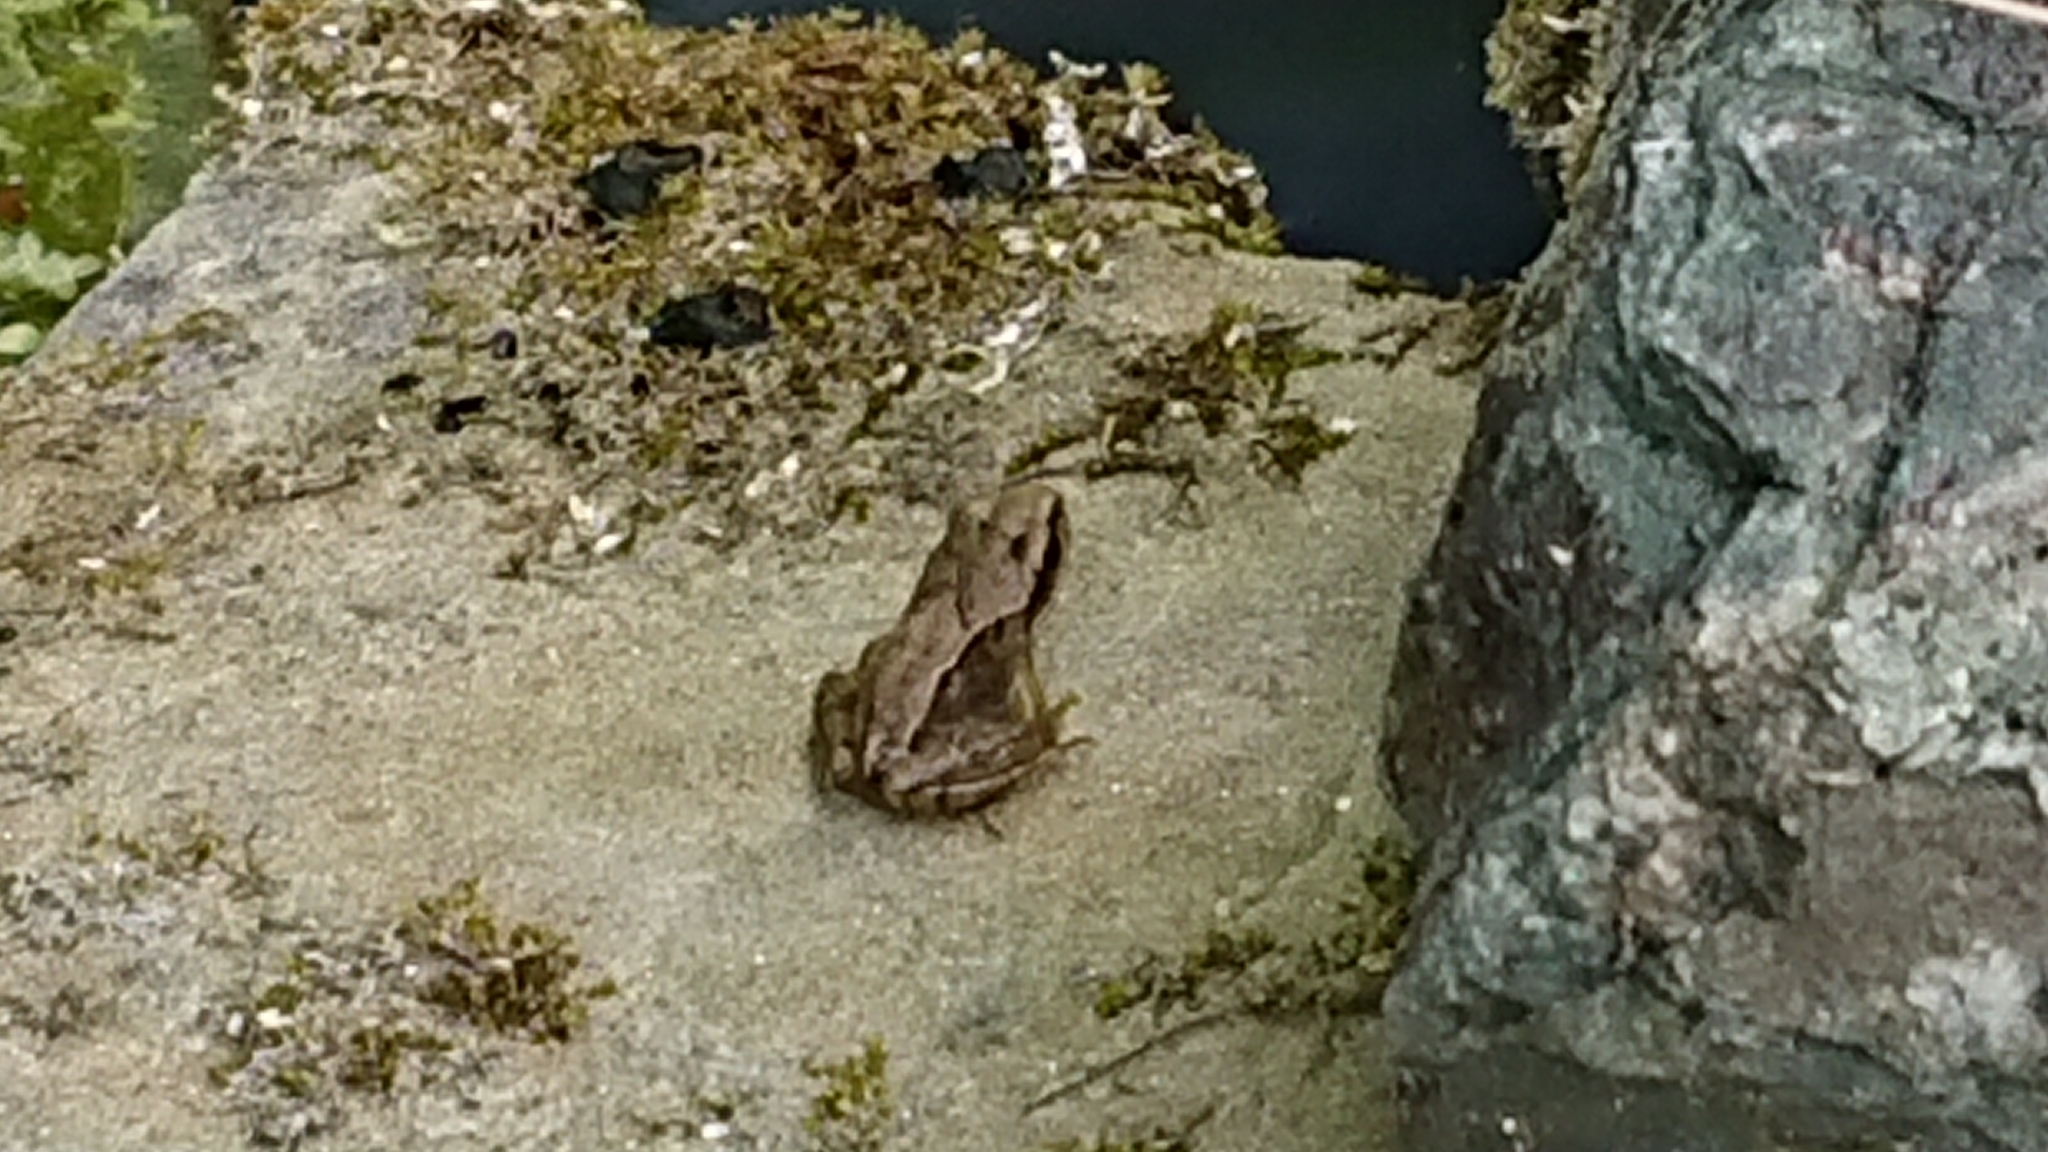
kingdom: Animalia
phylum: Chordata
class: Amphibia
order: Anura
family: Ranidae
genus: Rana
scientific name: Rana temporaria
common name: Common frog
